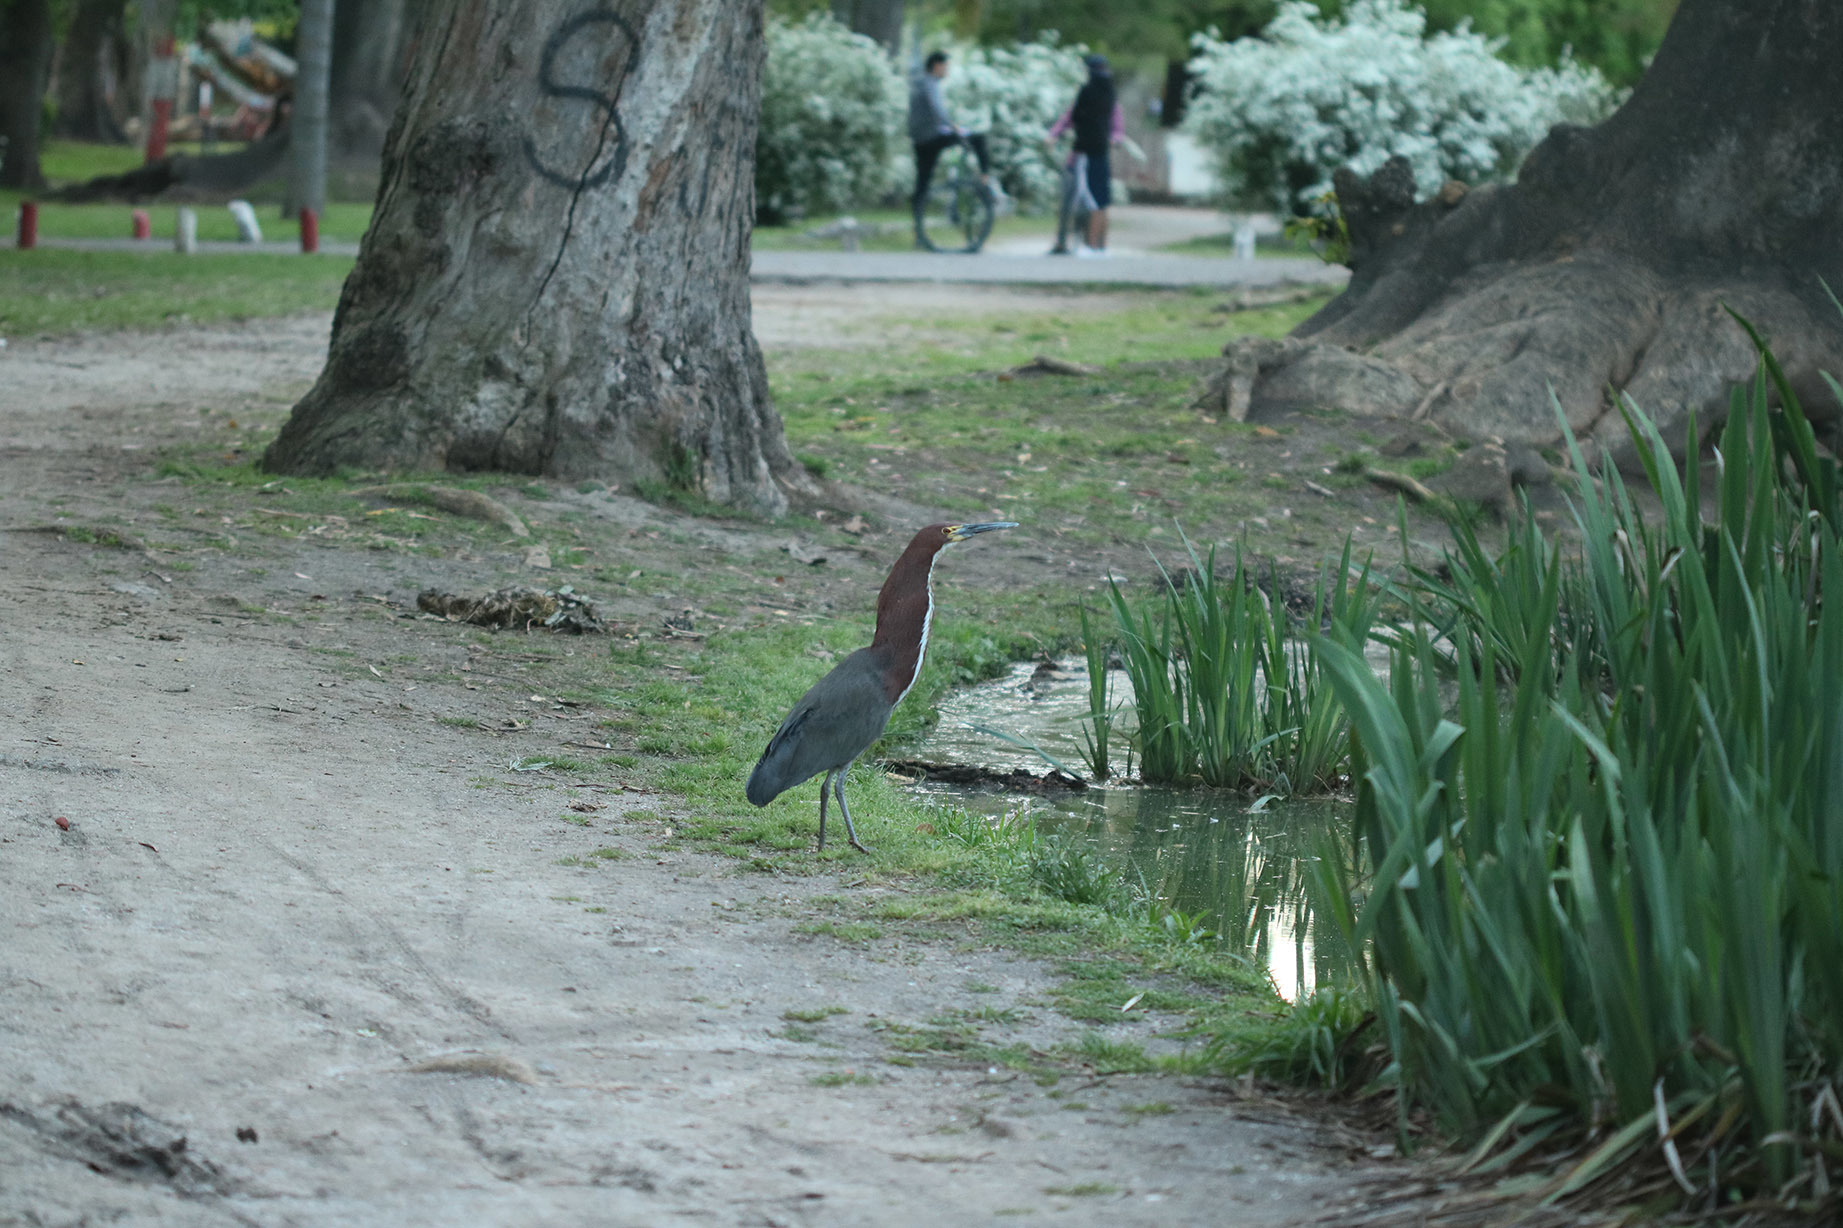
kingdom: Animalia
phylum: Chordata
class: Aves
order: Pelecaniformes
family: Ardeidae
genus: Tigrisoma
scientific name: Tigrisoma lineatum
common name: Rufescent tiger-heron
